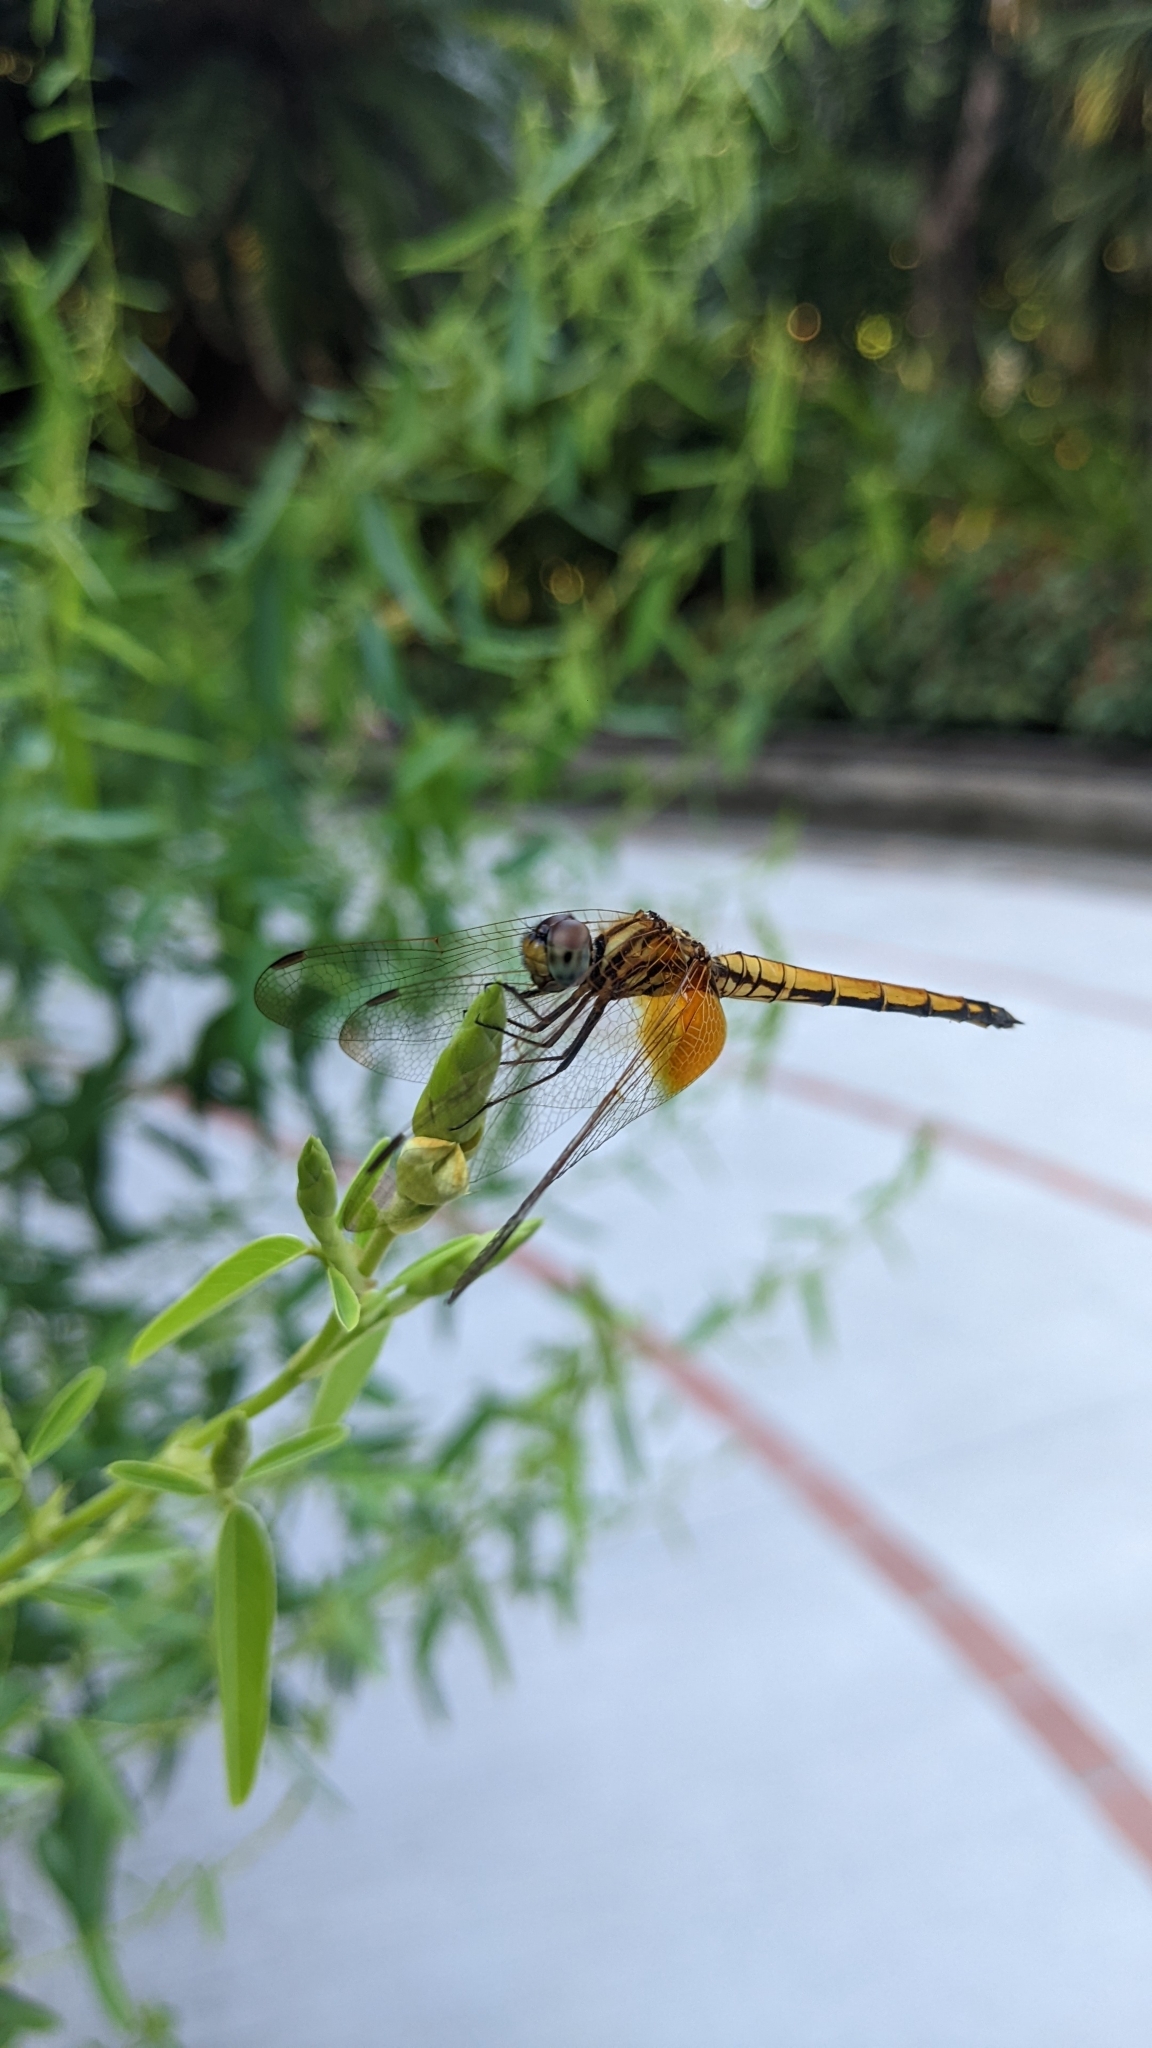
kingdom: Animalia
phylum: Arthropoda
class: Insecta
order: Odonata
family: Libellulidae
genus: Trithemis
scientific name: Trithemis aurora
